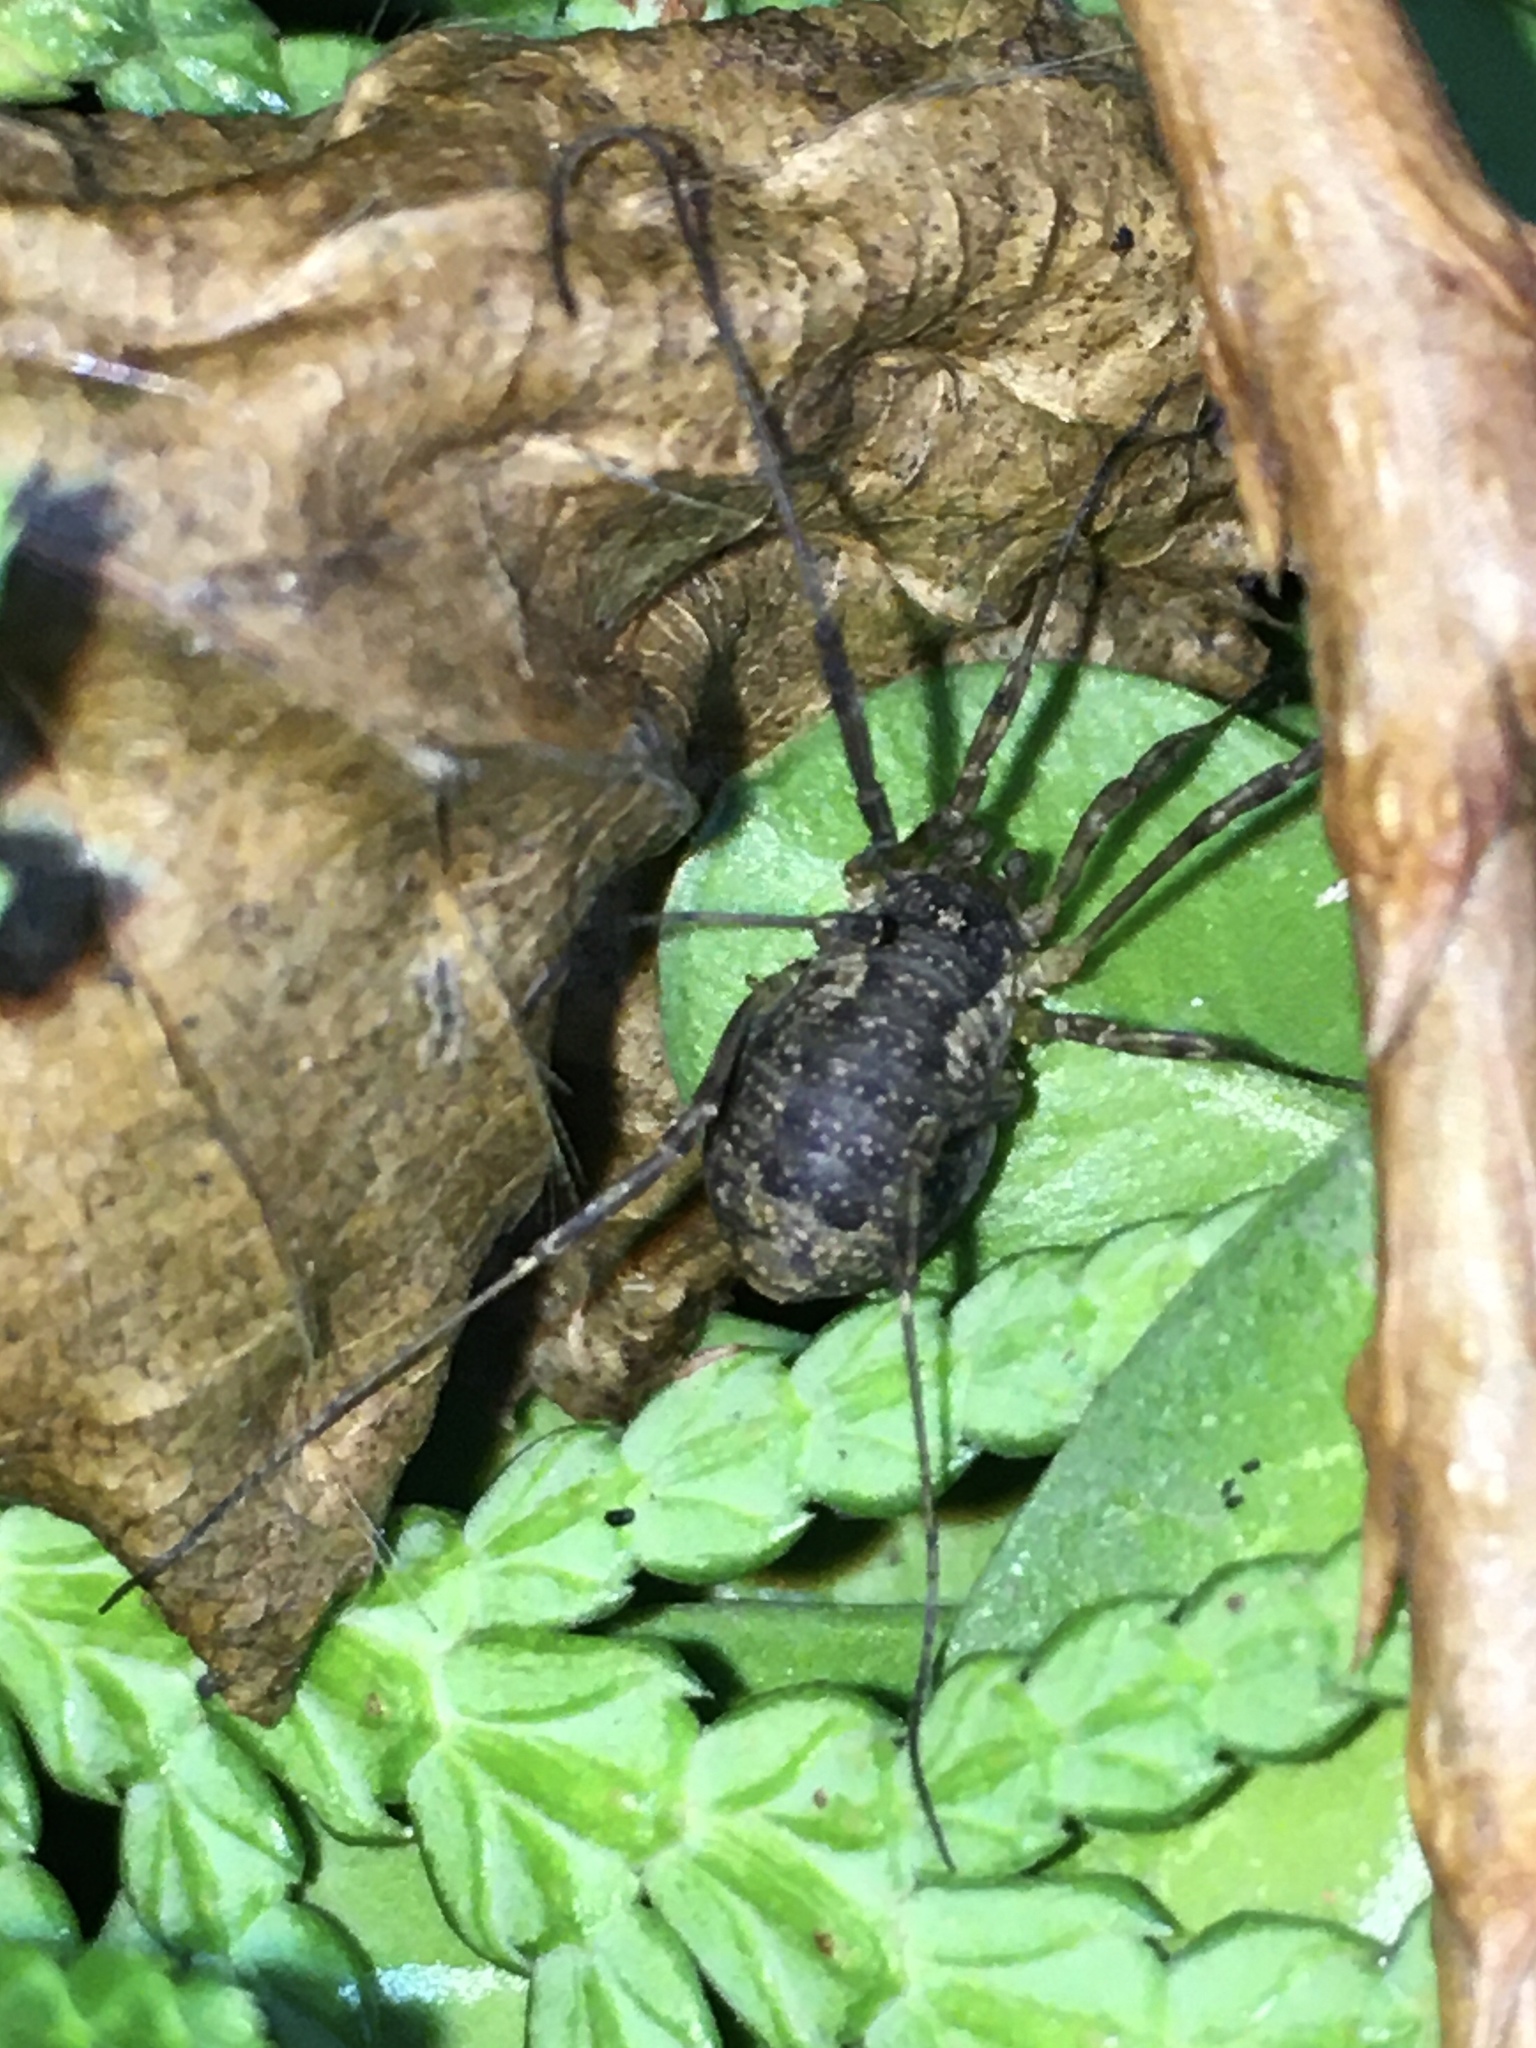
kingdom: Animalia
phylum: Arthropoda
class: Arachnida
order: Opiliones
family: Phalangiidae
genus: Oligolophus
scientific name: Oligolophus tridens
